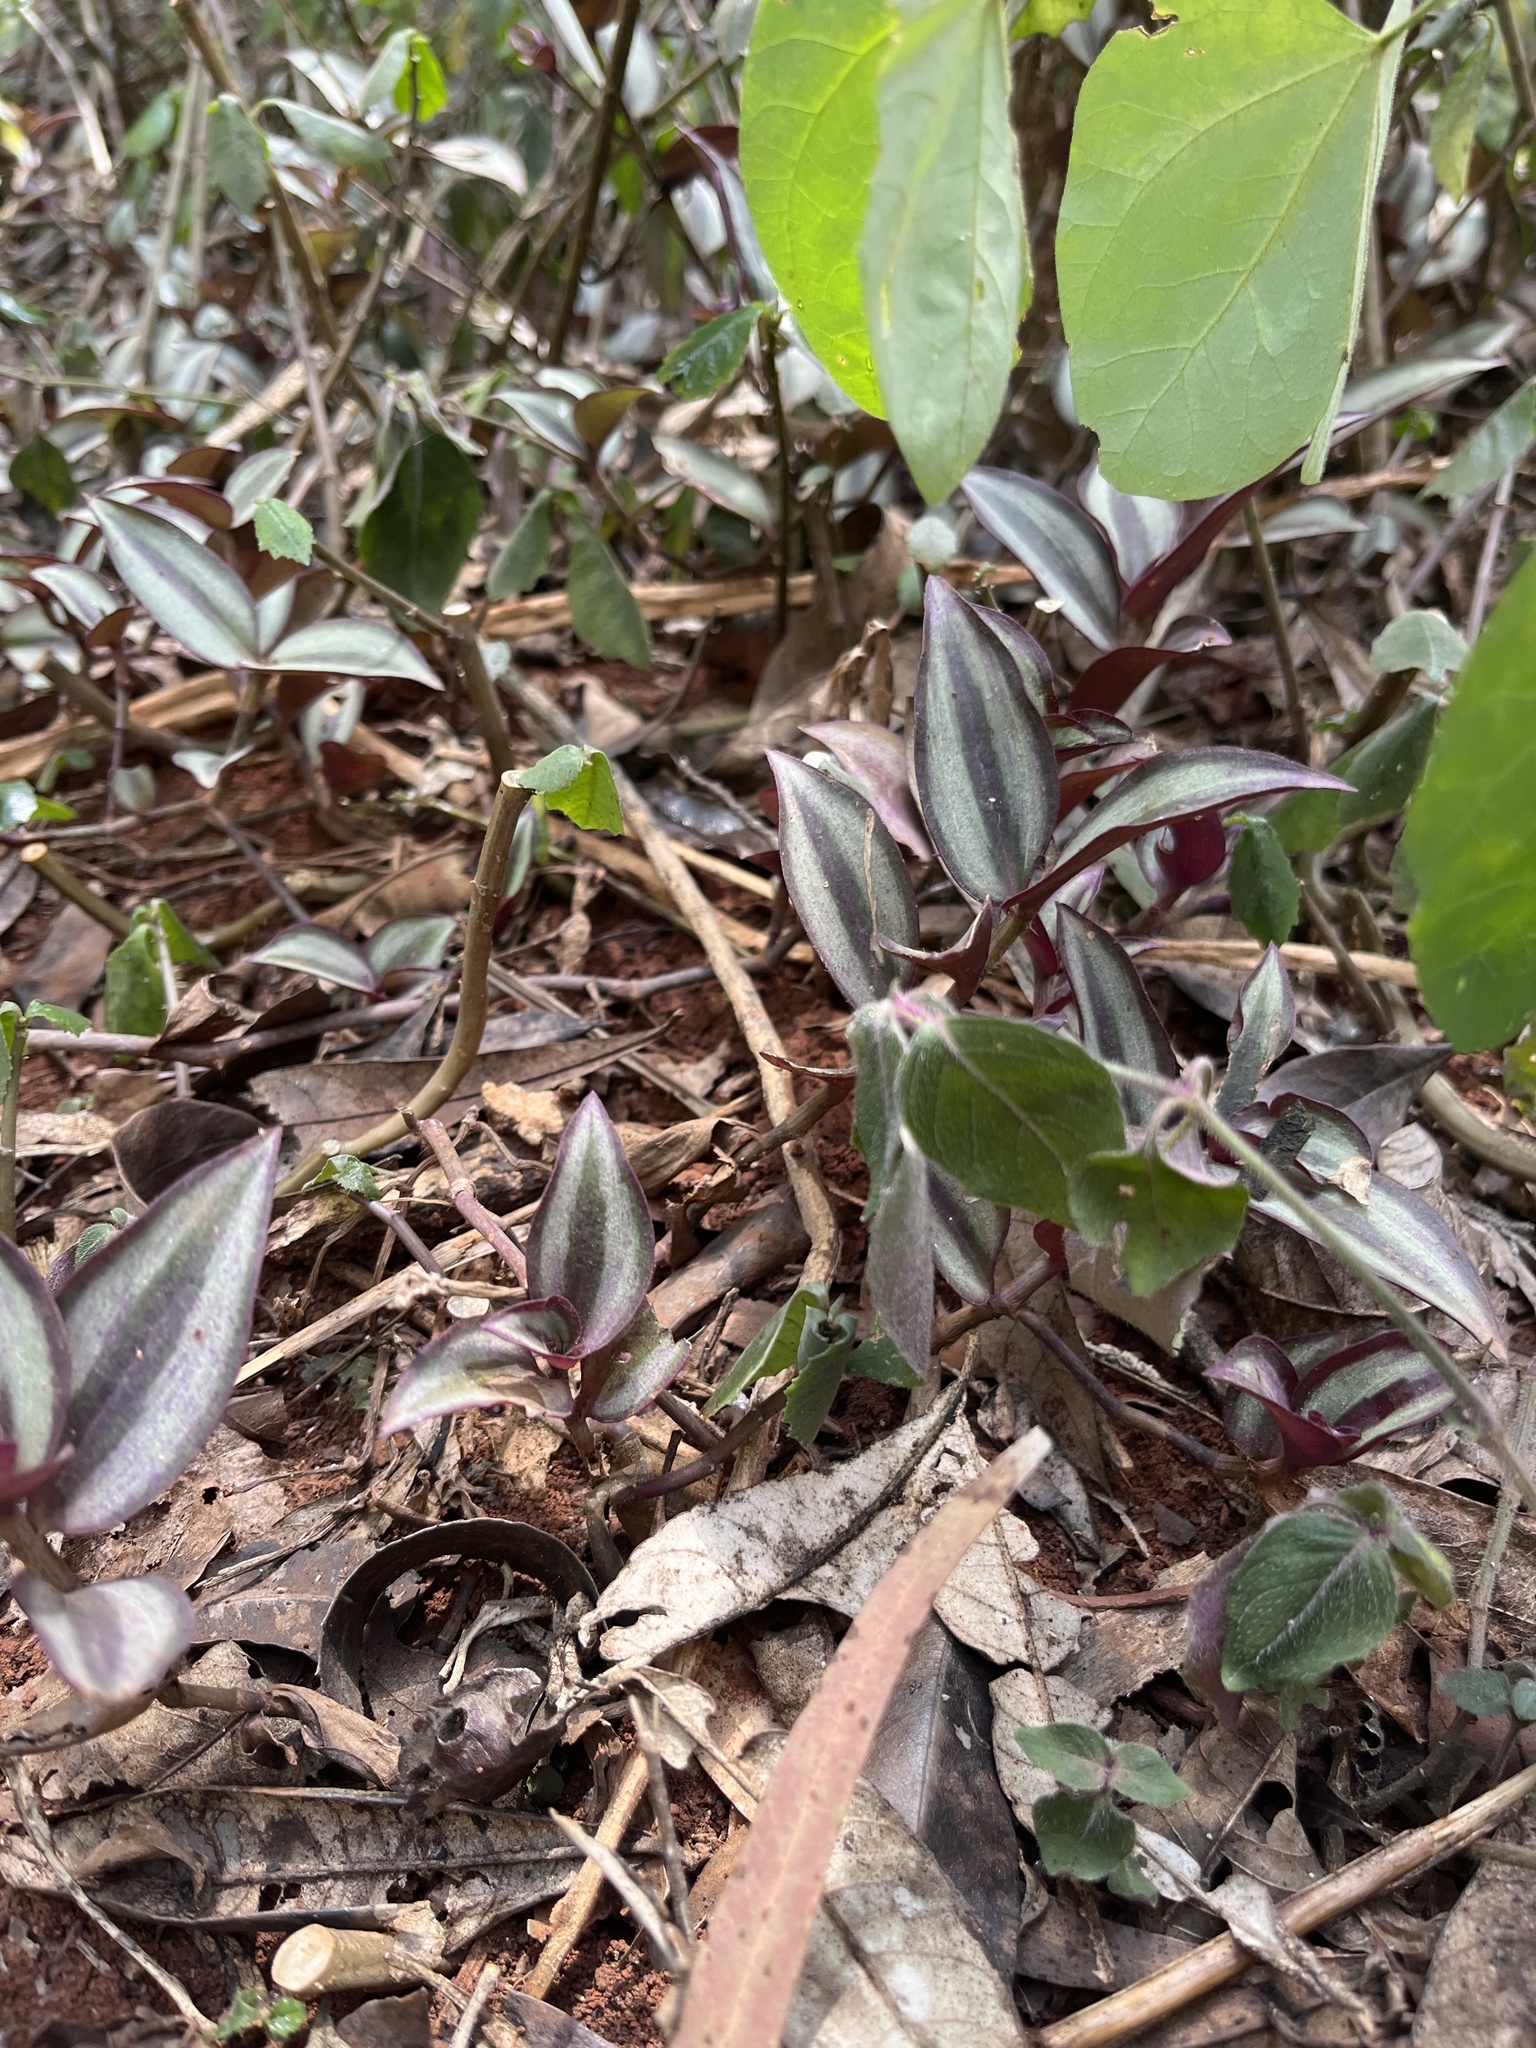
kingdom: Plantae
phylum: Tracheophyta
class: Liliopsida
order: Commelinales
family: Commelinaceae
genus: Tradescantia
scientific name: Tradescantia zebrina
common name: Inchplant
